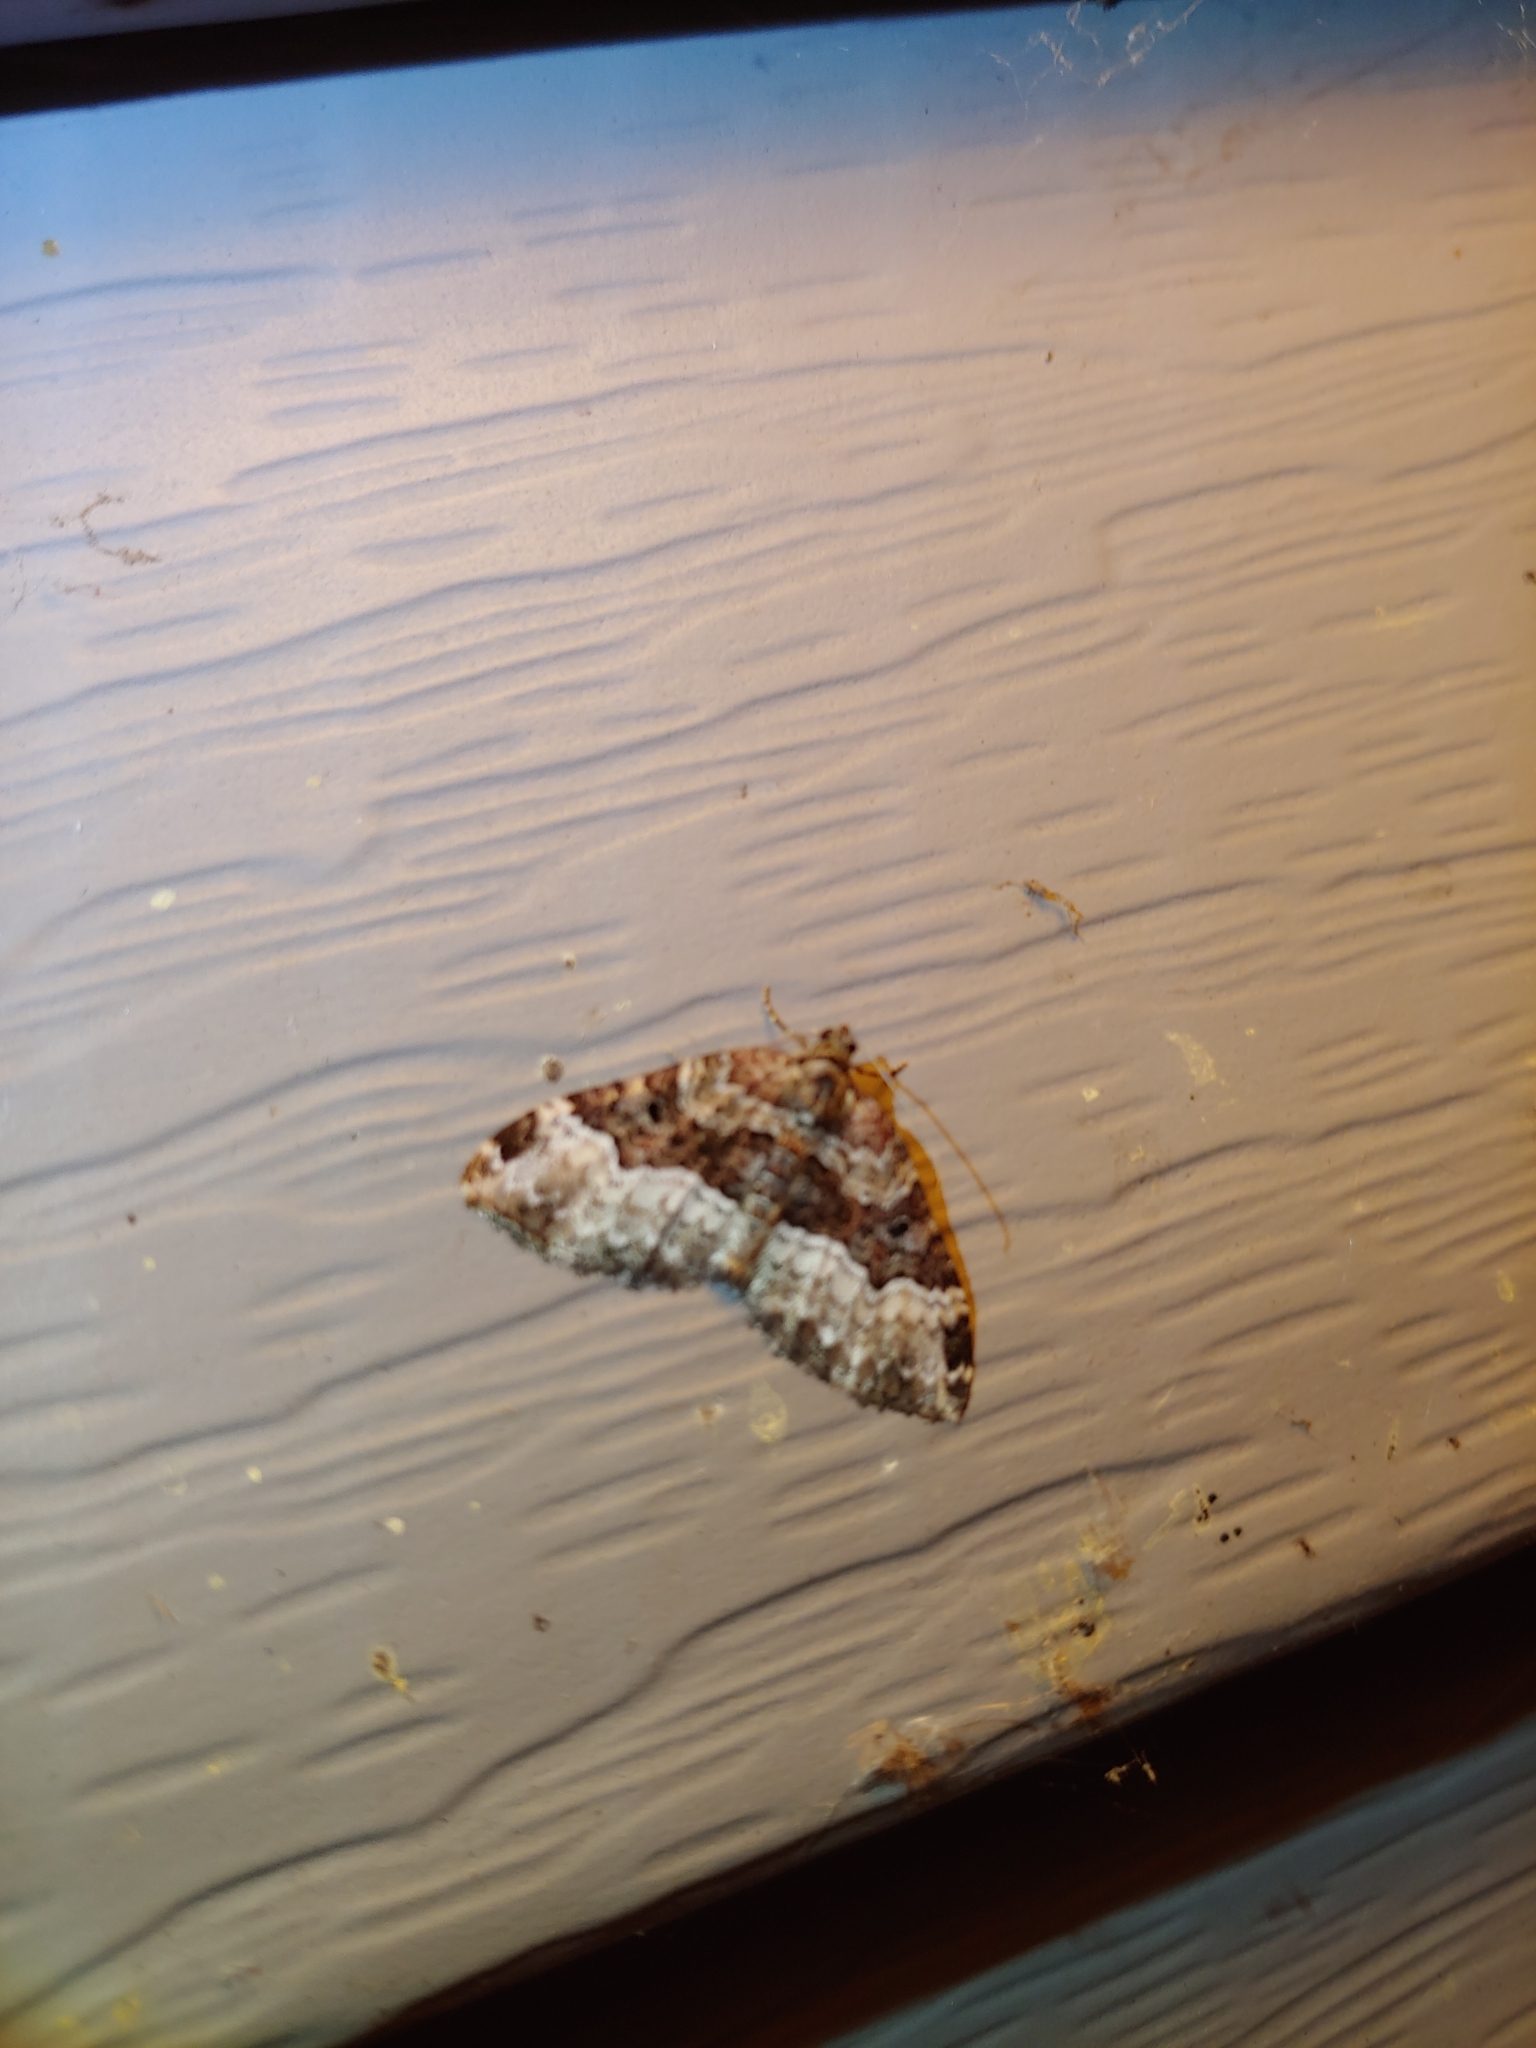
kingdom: Animalia
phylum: Arthropoda
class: Insecta
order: Lepidoptera
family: Geometridae
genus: Xanthorhoe
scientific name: Xanthorhoe lacustrata
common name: Toothed brown carpet
